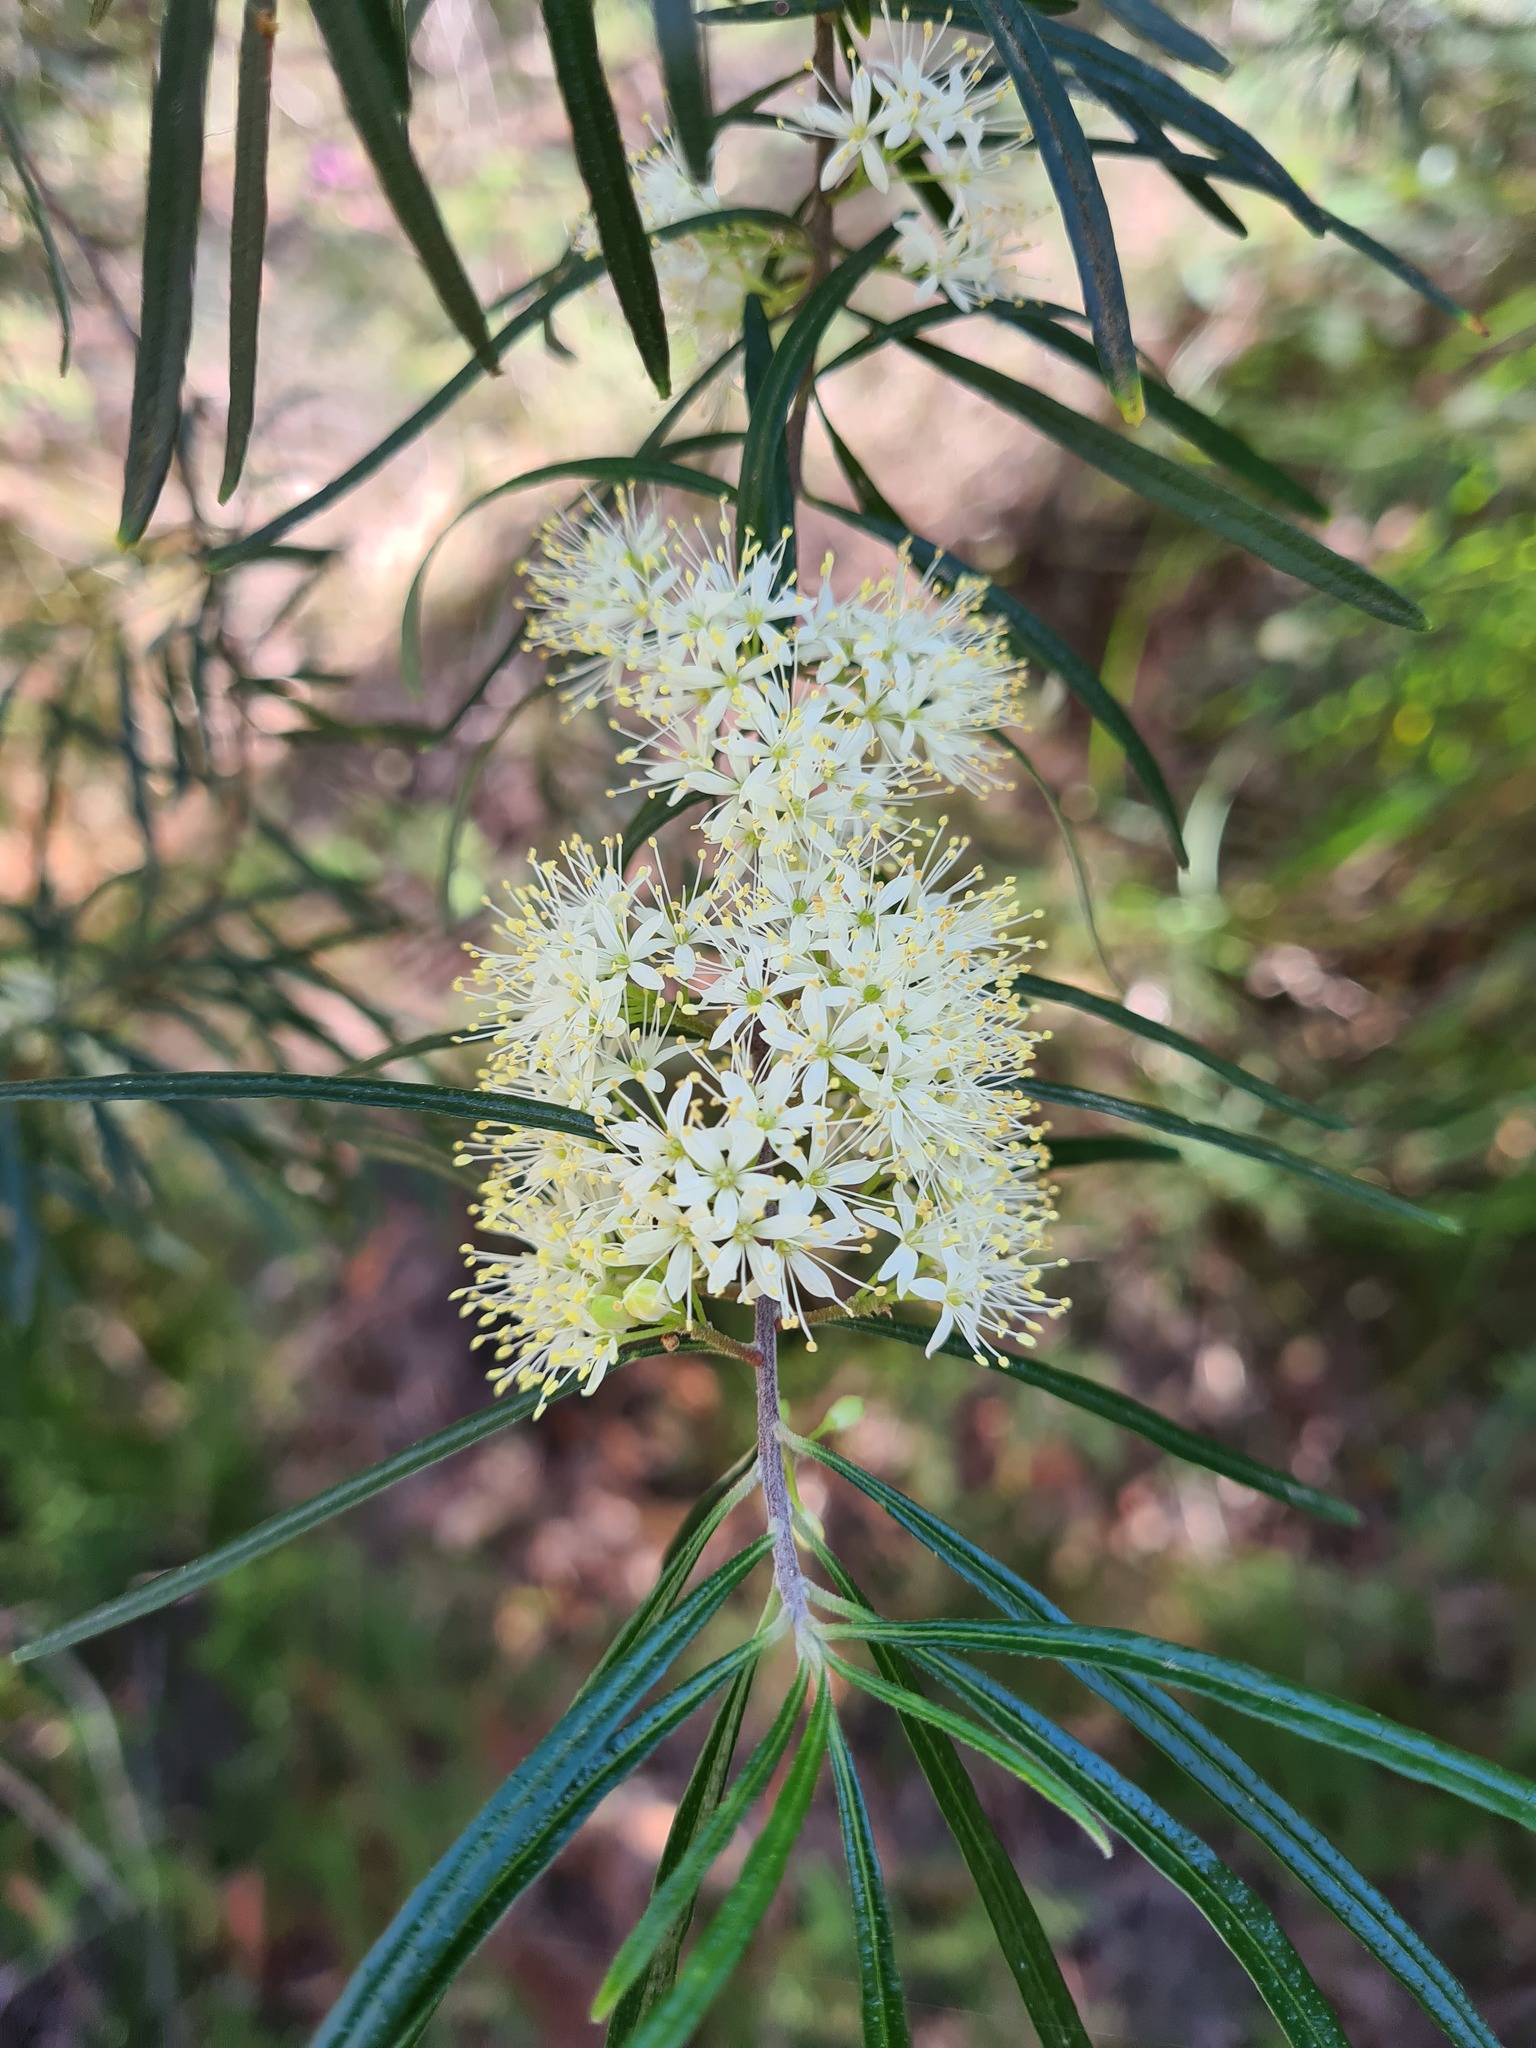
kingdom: Plantae
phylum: Tracheophyta
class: Magnoliopsida
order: Sapindales
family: Rutaceae
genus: Leionema
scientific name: Leionema dentatum
